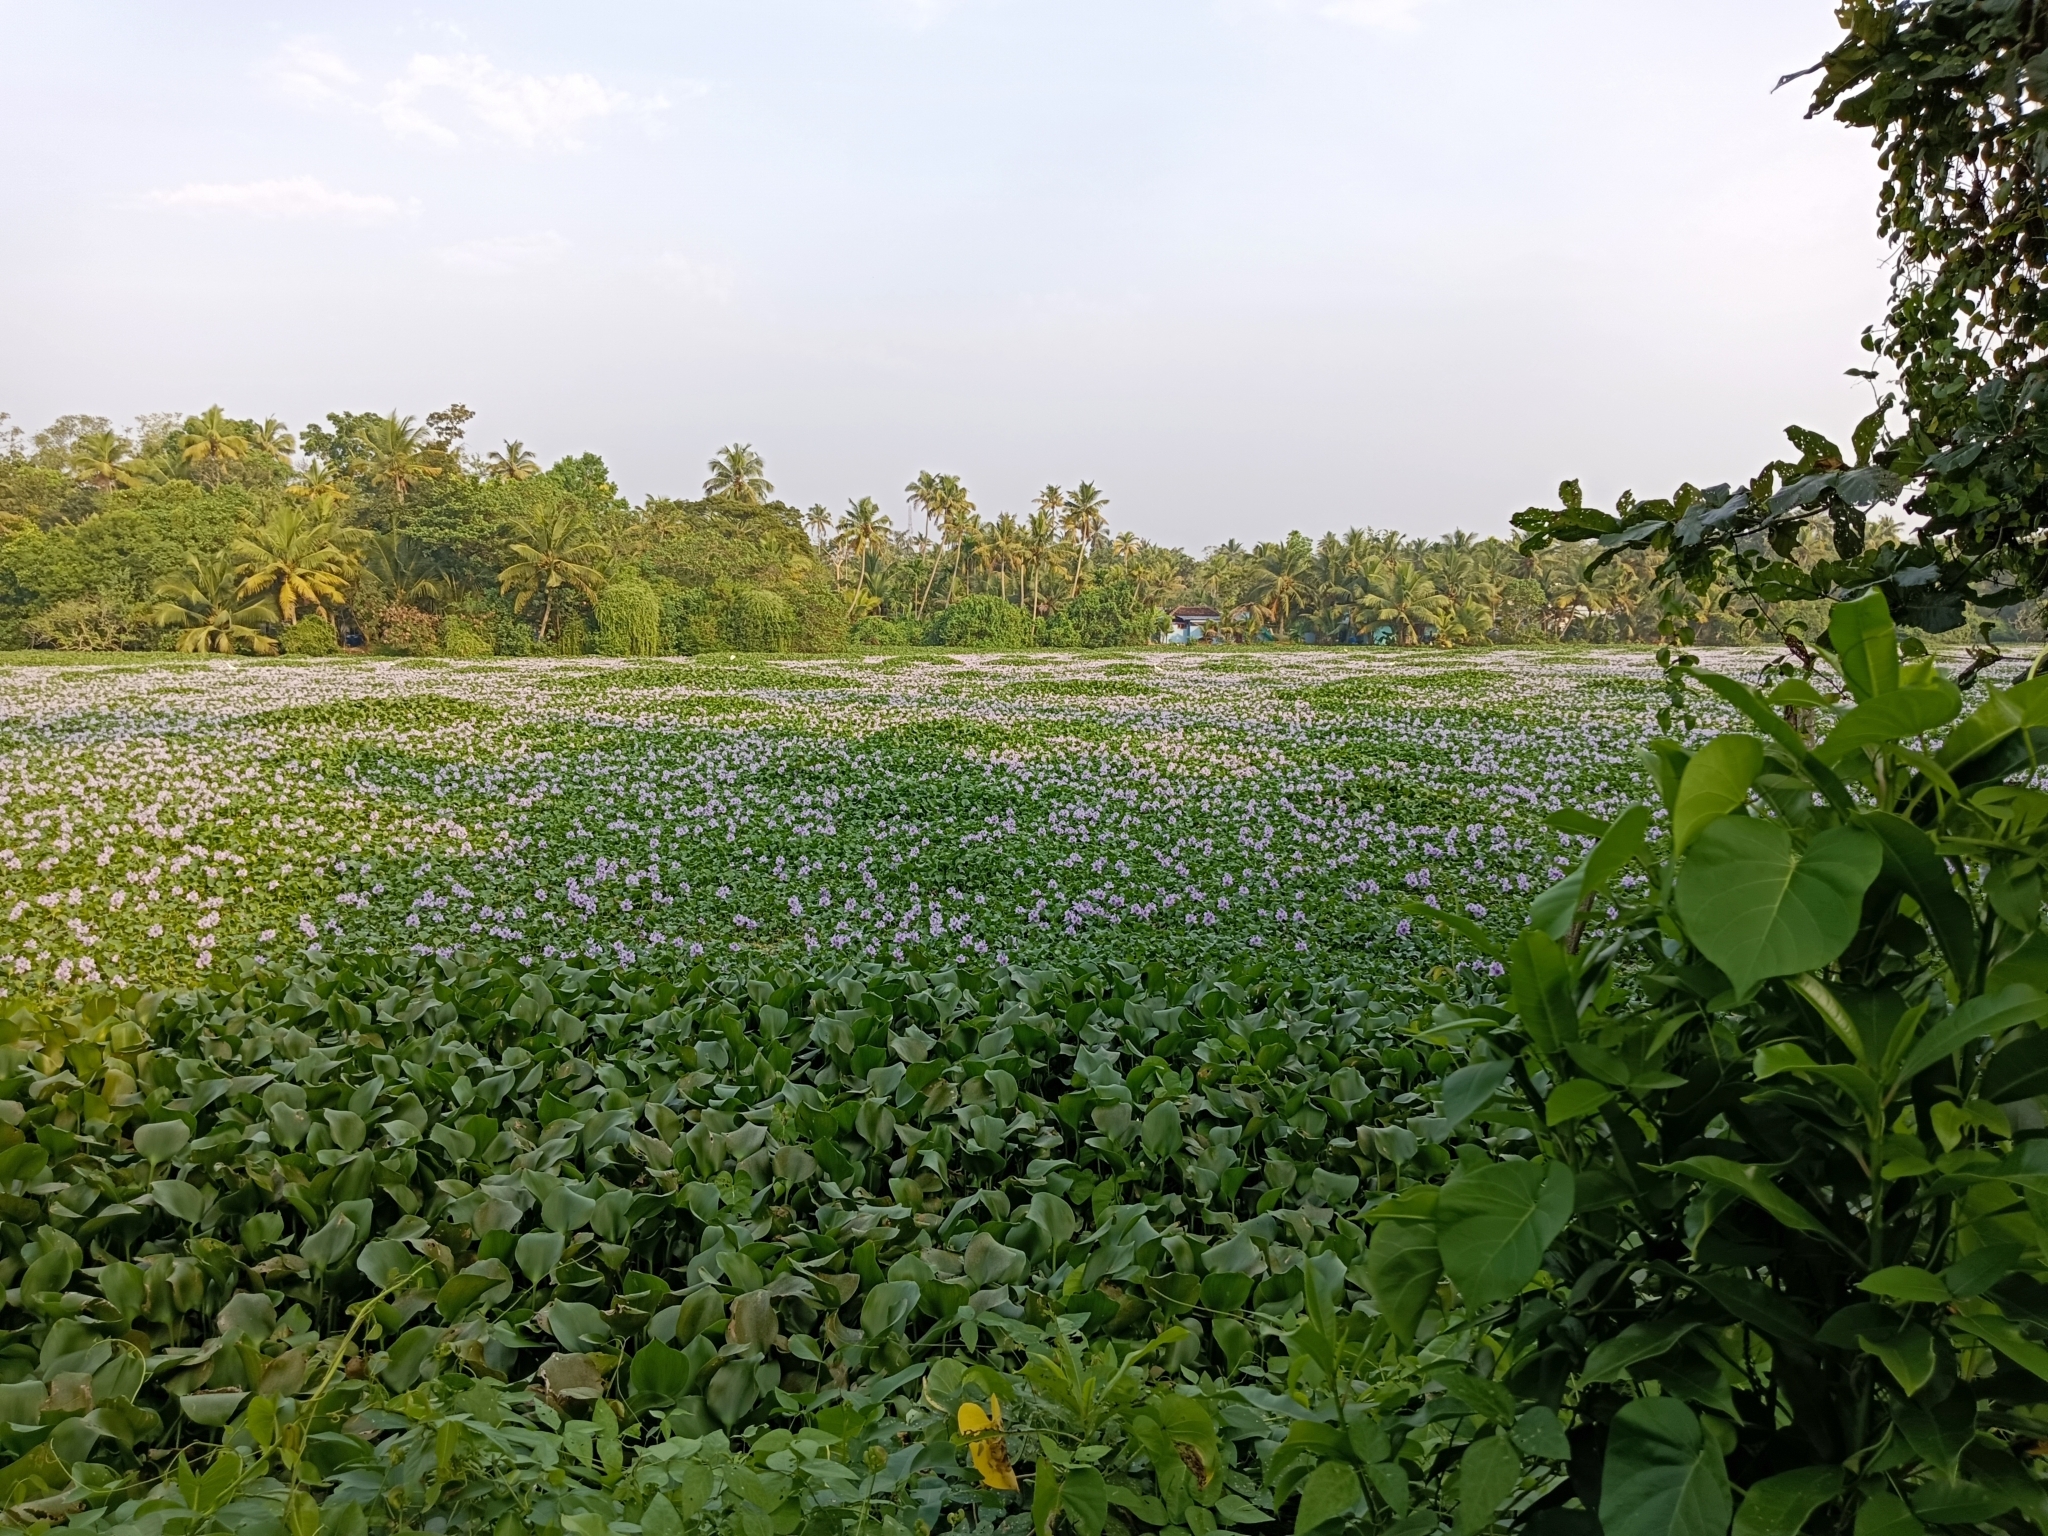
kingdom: Plantae
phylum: Tracheophyta
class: Liliopsida
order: Commelinales
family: Pontederiaceae
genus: Pontederia
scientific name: Pontederia crassipes
